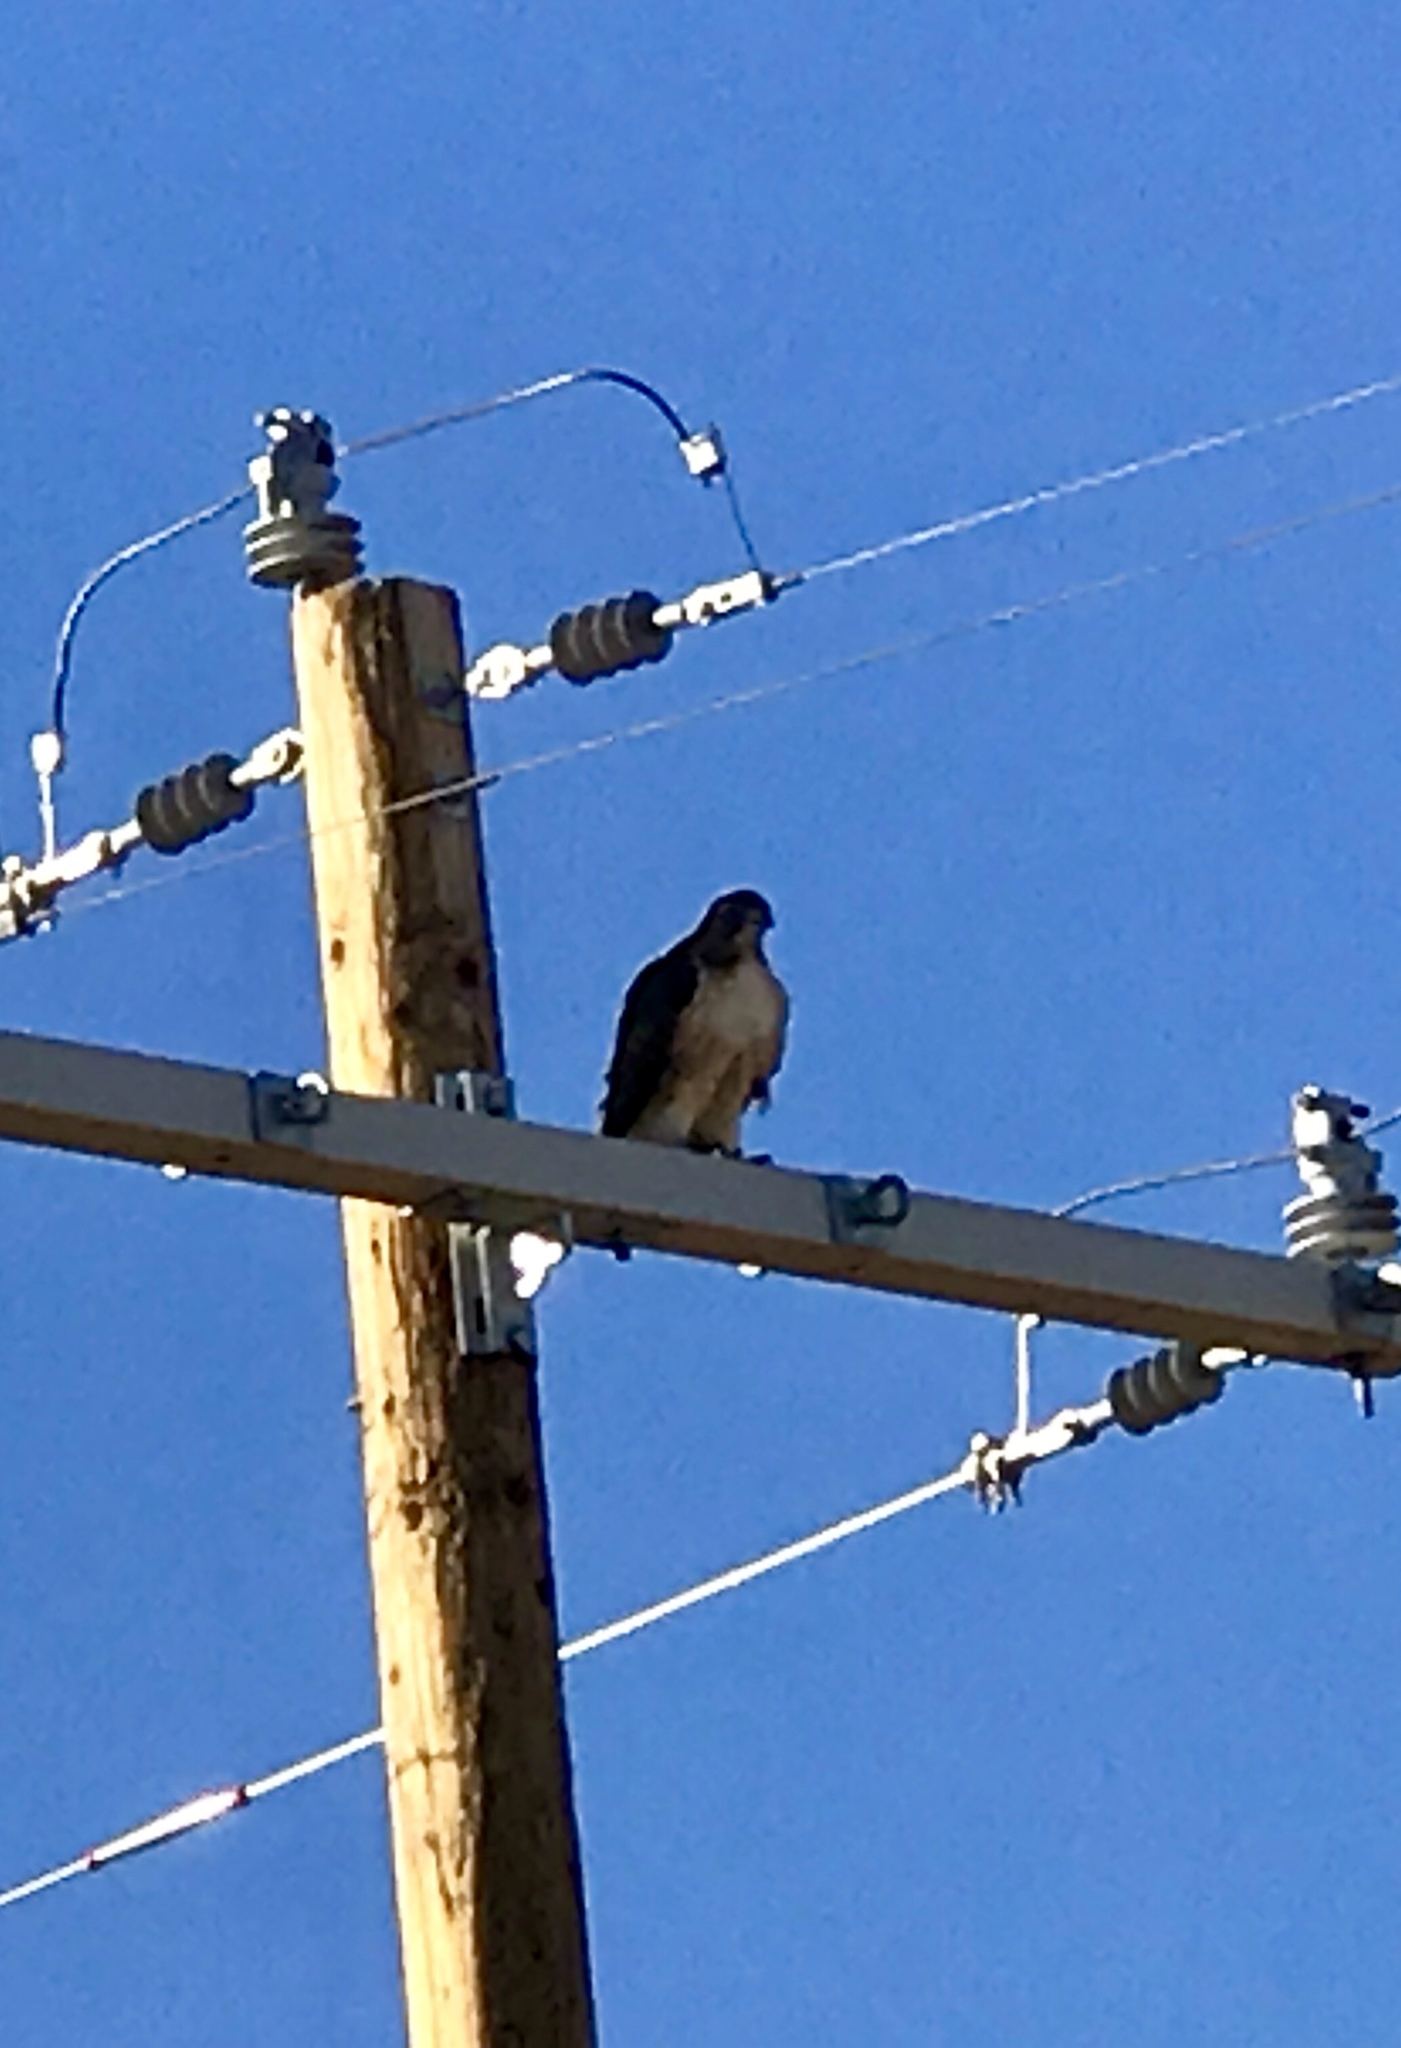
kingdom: Animalia
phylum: Chordata
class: Aves
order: Accipitriformes
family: Accipitridae
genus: Buteo
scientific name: Buteo jamaicensis
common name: Red-tailed hawk
